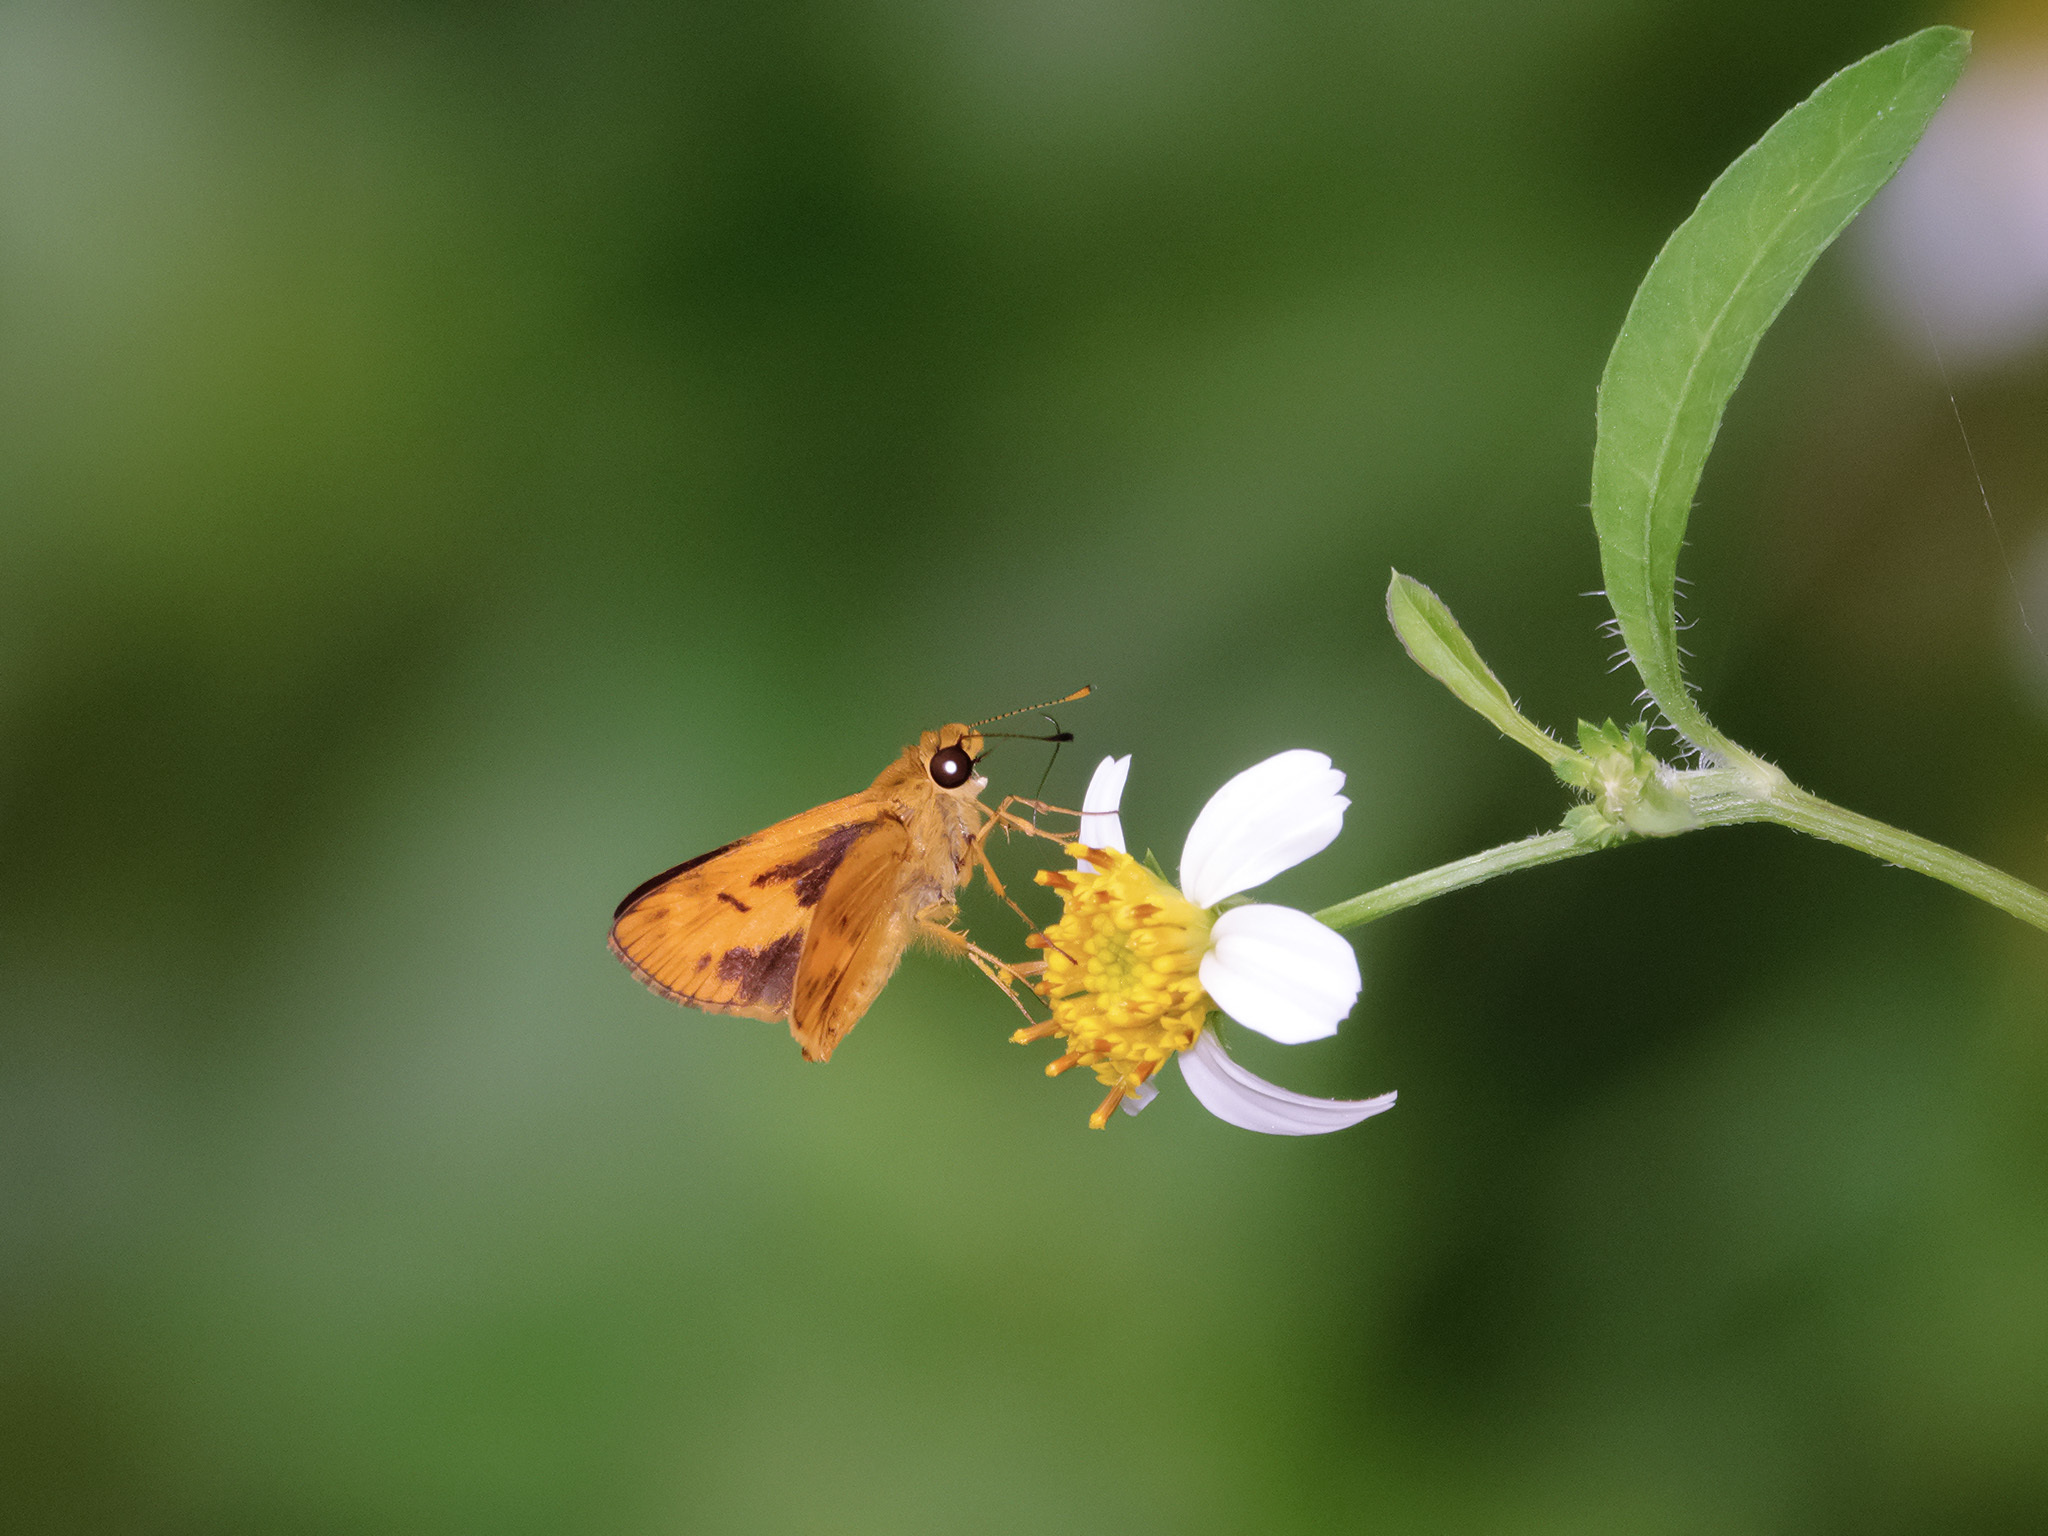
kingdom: Animalia
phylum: Arthropoda
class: Insecta
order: Lepidoptera
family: Hesperiidae
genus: Oriens
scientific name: Oriens gola
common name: Common dartlet
